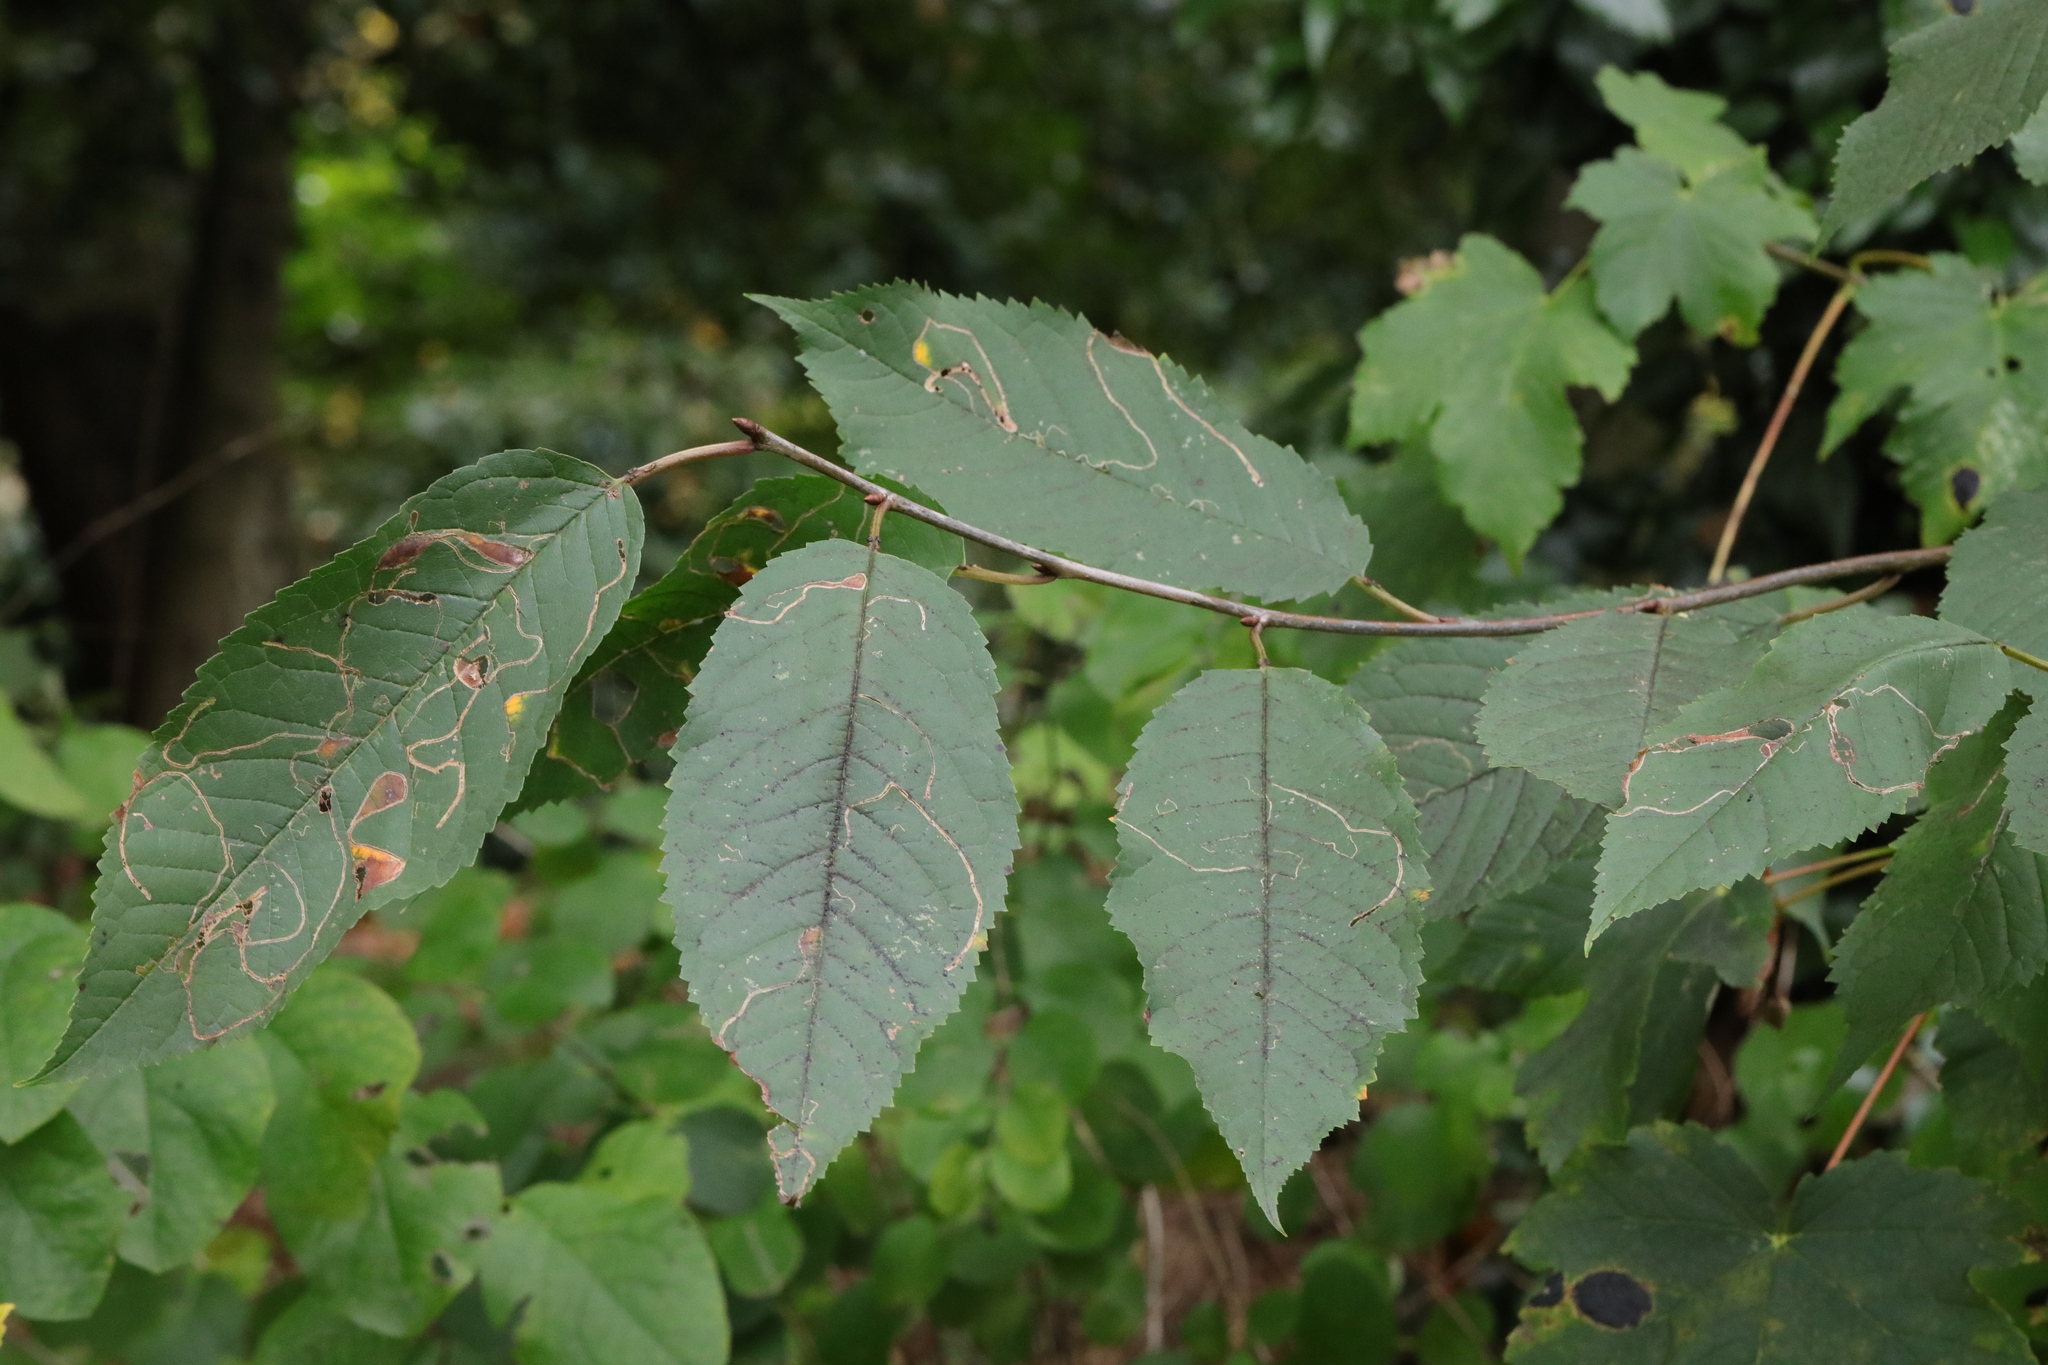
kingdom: Plantae
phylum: Tracheophyta
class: Magnoliopsida
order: Rosales
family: Rosaceae
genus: Prunus
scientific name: Prunus avium
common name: Sweet cherry
